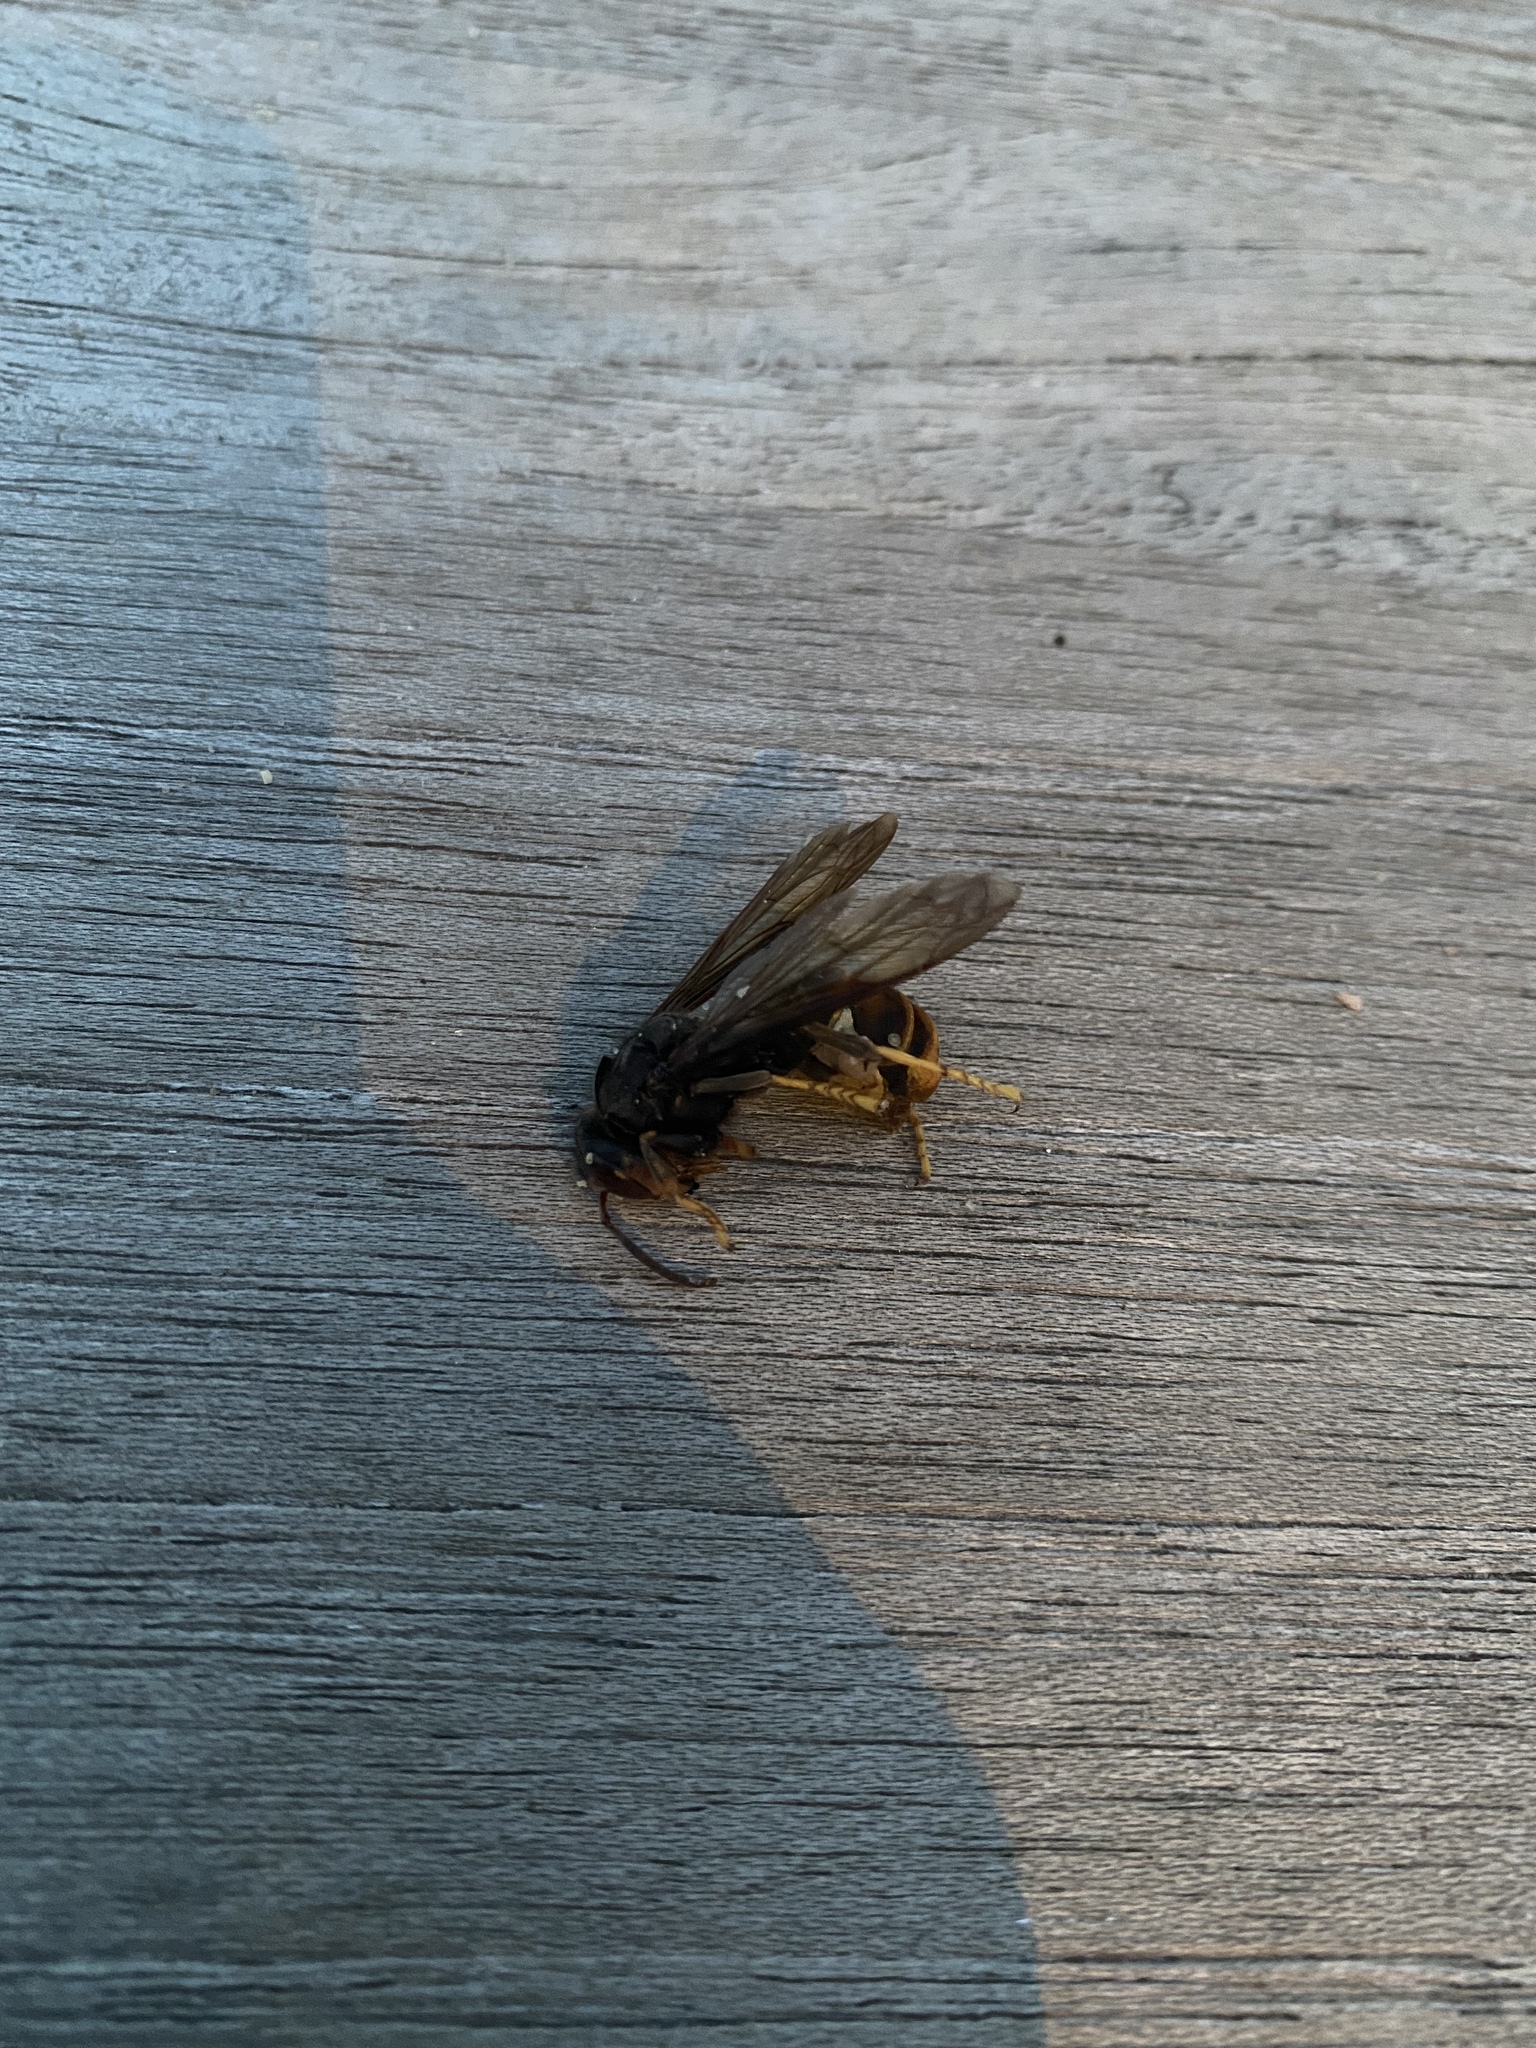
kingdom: Animalia
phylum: Arthropoda
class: Insecta
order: Hymenoptera
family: Vespidae
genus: Vespa
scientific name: Vespa velutina
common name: Asian hornet
